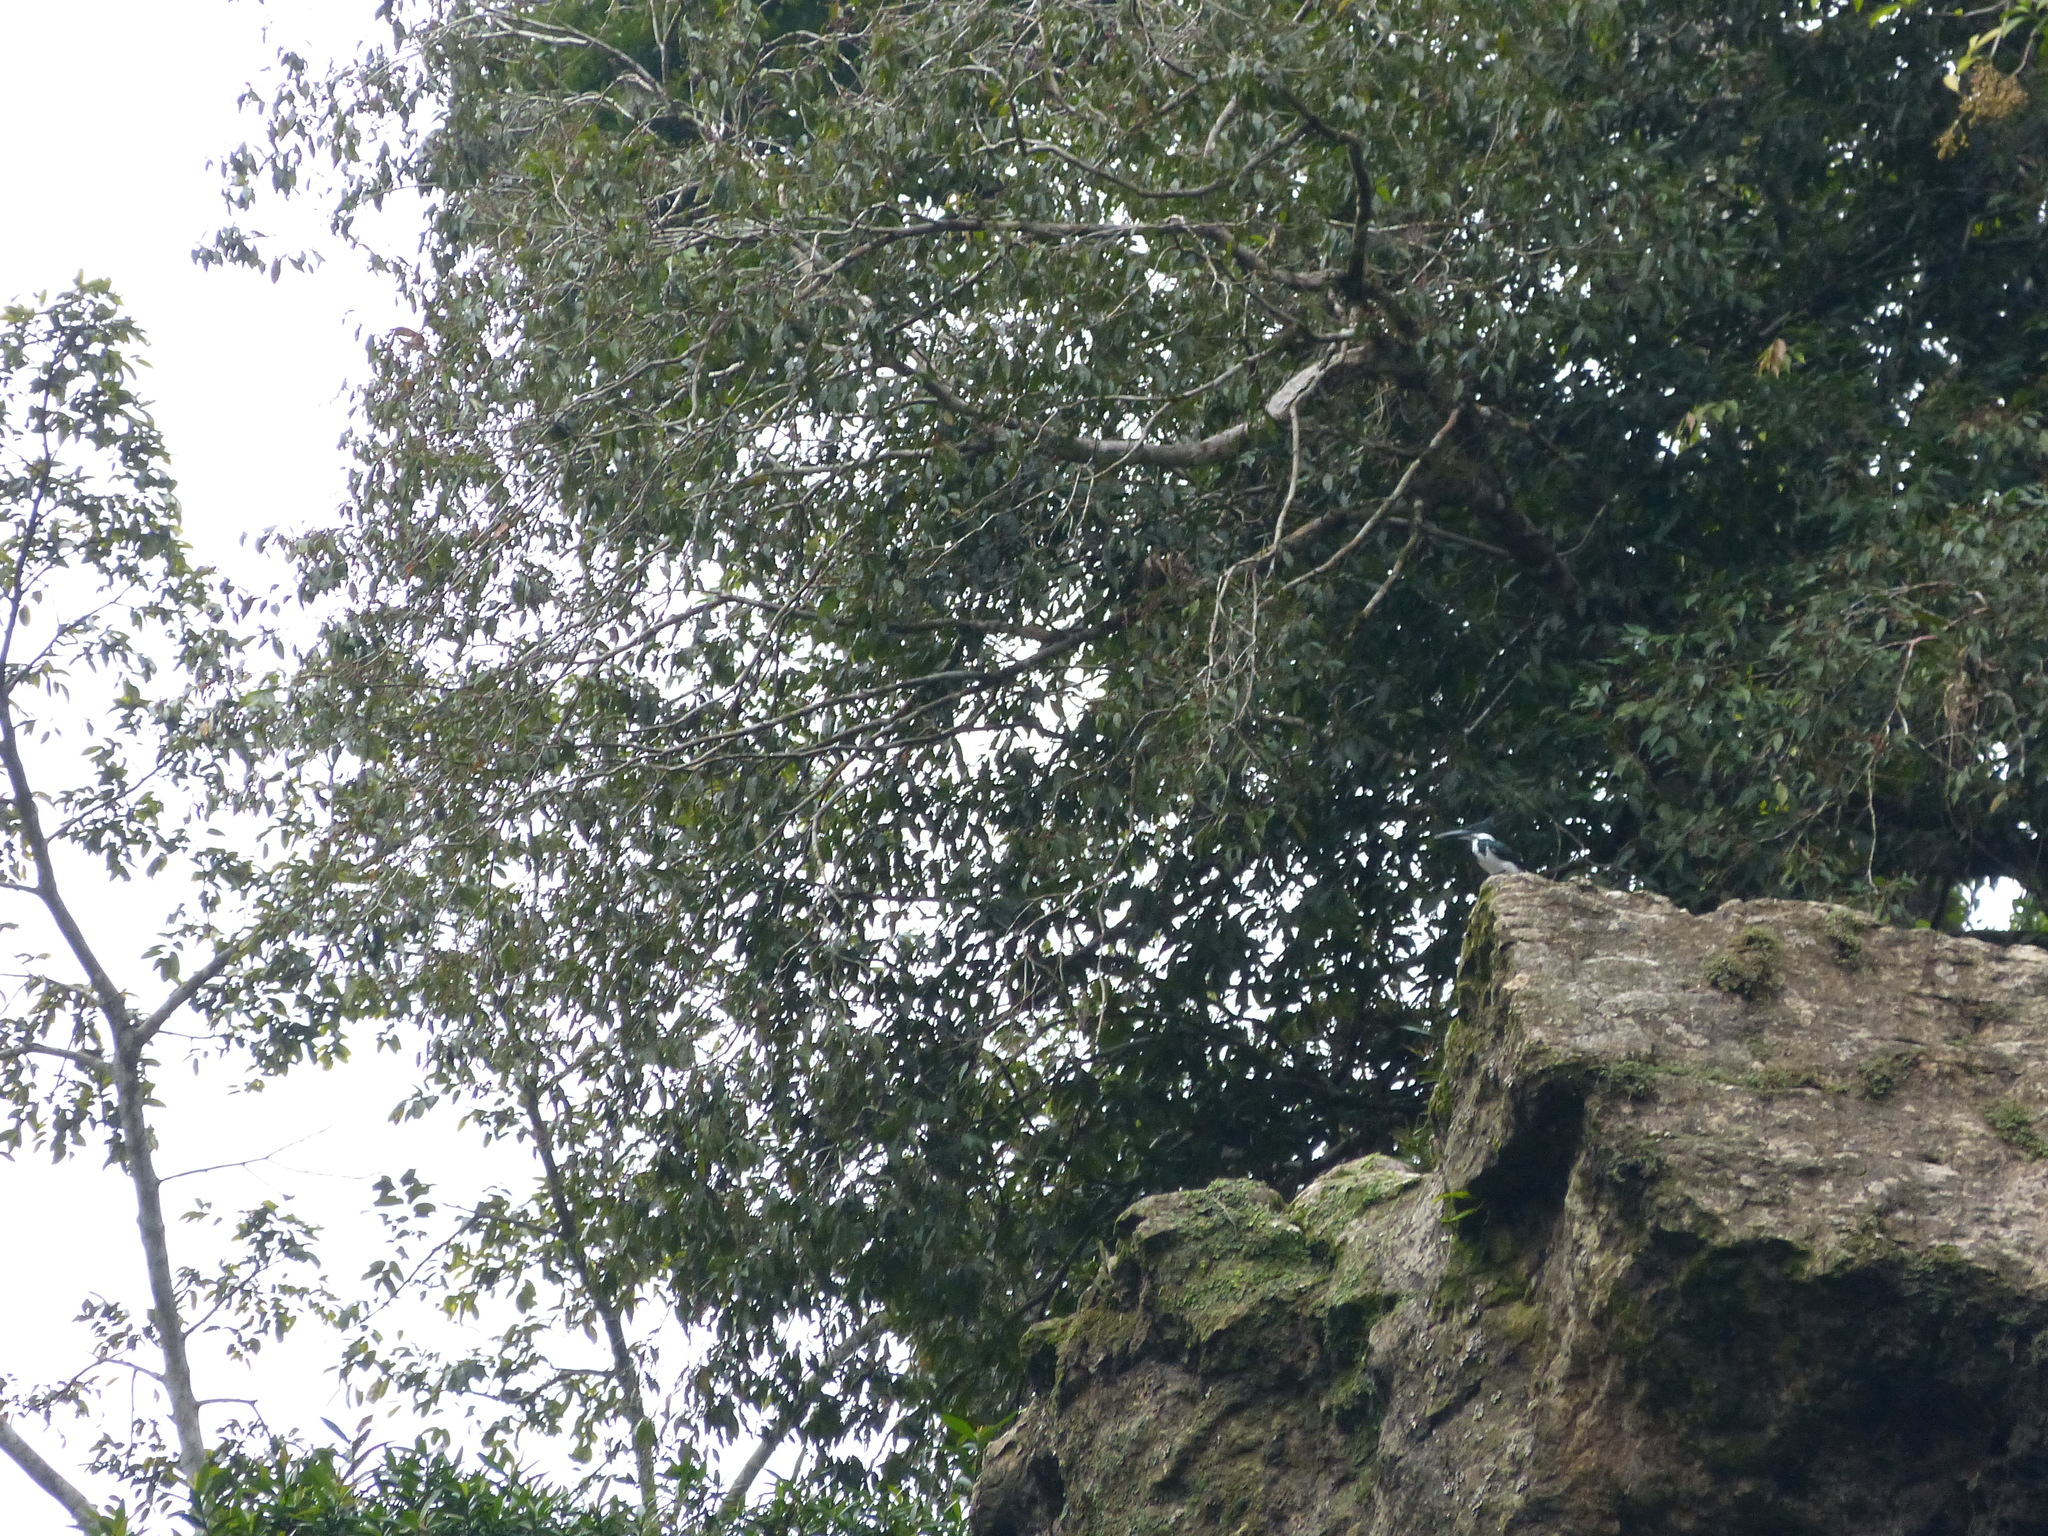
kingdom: Animalia
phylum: Chordata
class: Aves
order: Coraciiformes
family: Alcedinidae
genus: Chloroceryle
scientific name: Chloroceryle amazona
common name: Amazon kingfisher
